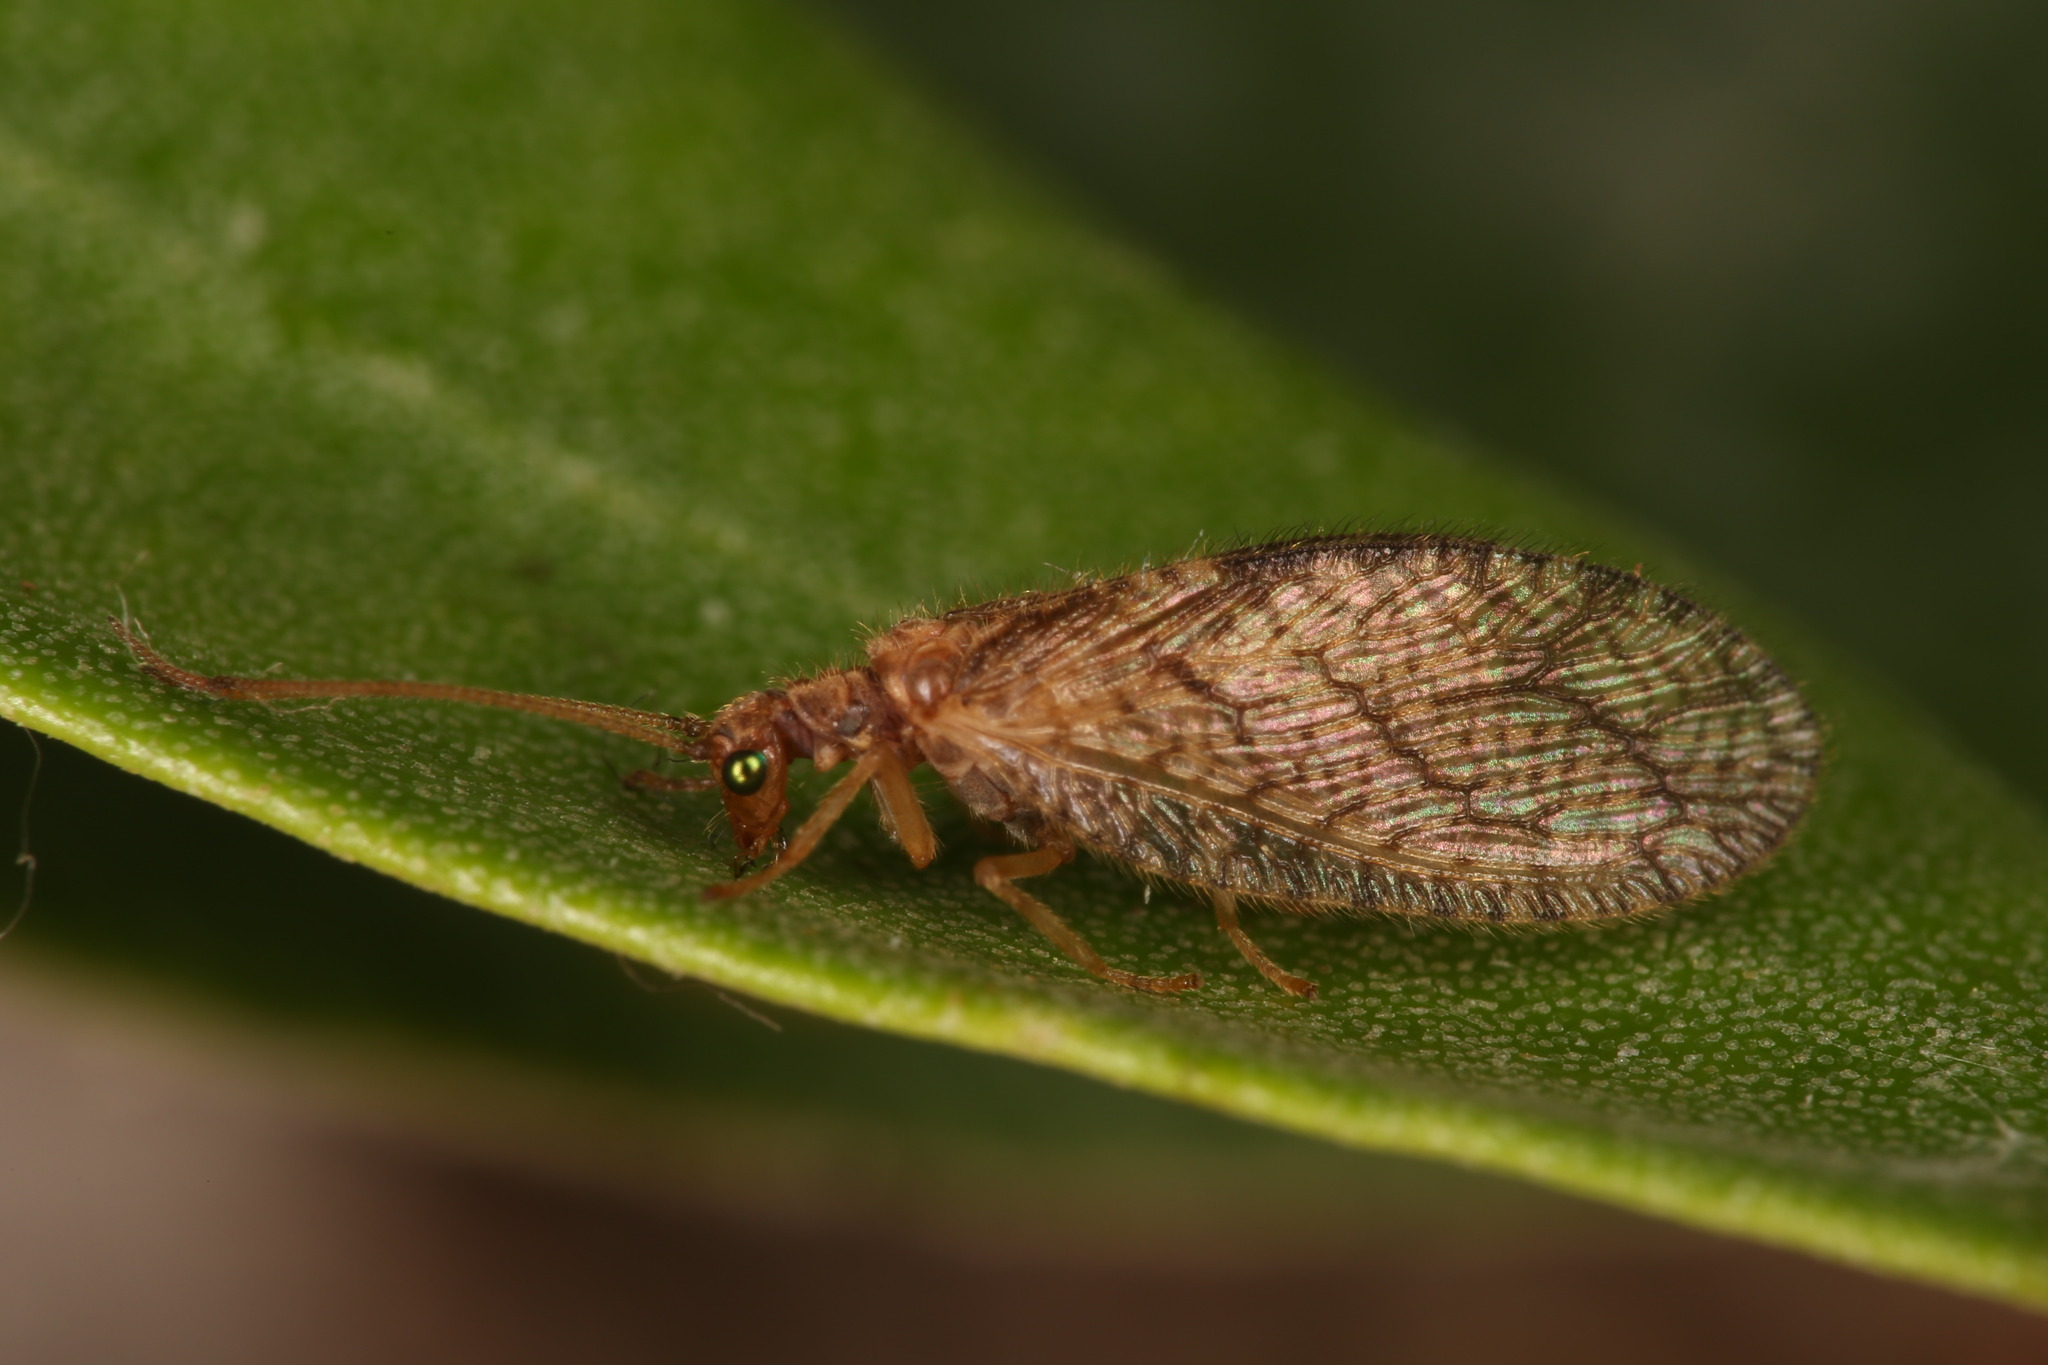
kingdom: Animalia
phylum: Arthropoda
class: Insecta
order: Neuroptera
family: Hemerobiidae
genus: Micromus
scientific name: Micromus angulatus
